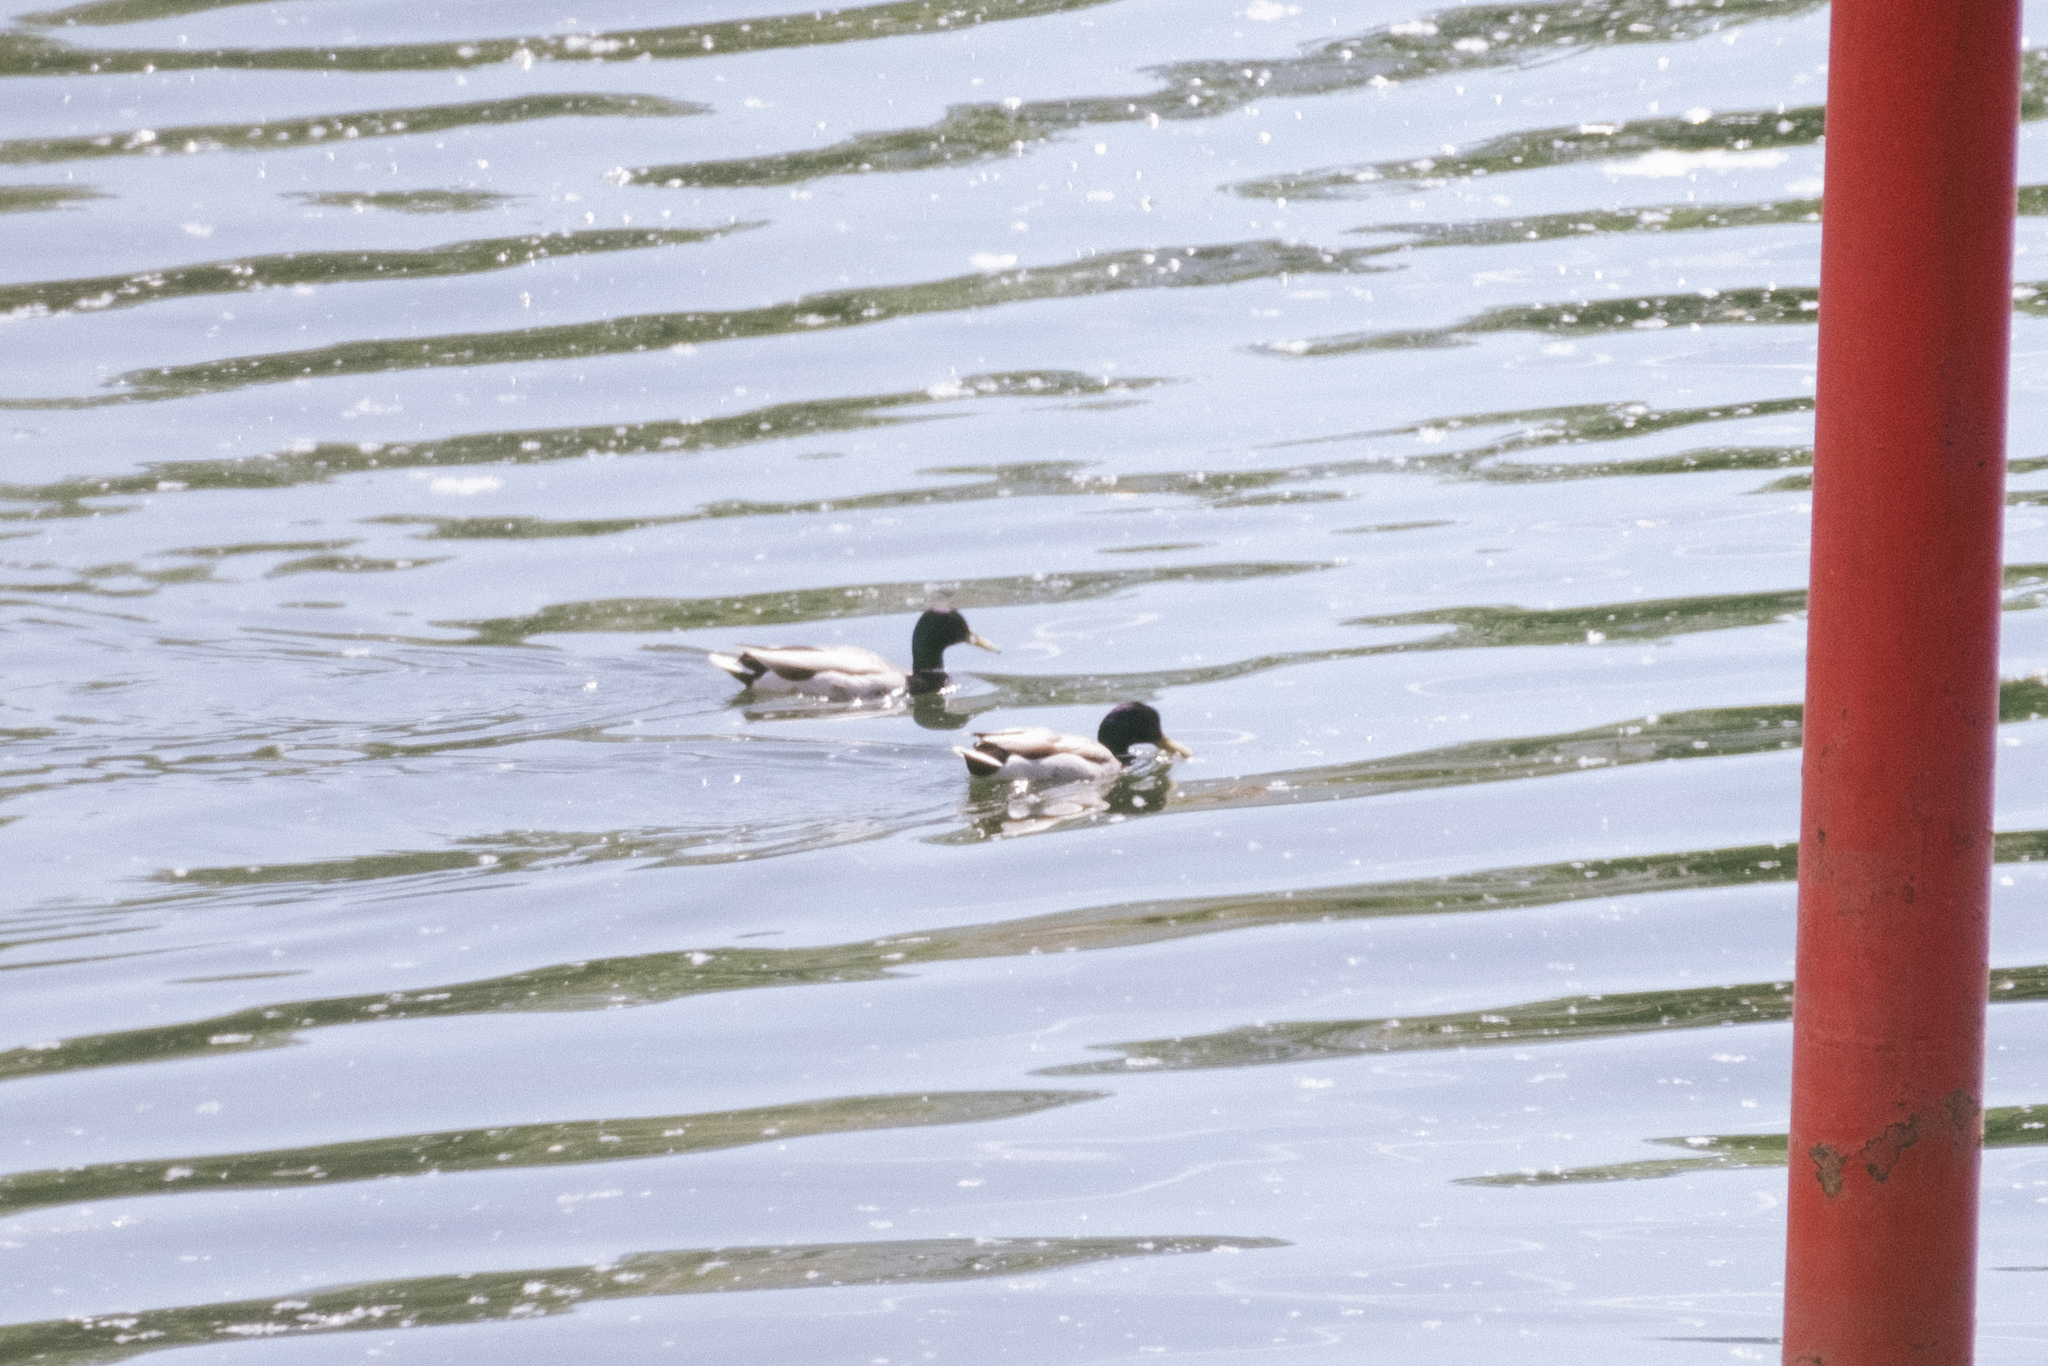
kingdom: Animalia
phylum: Chordata
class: Aves
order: Anseriformes
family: Anatidae
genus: Anas
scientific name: Anas platyrhynchos
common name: Mallard
